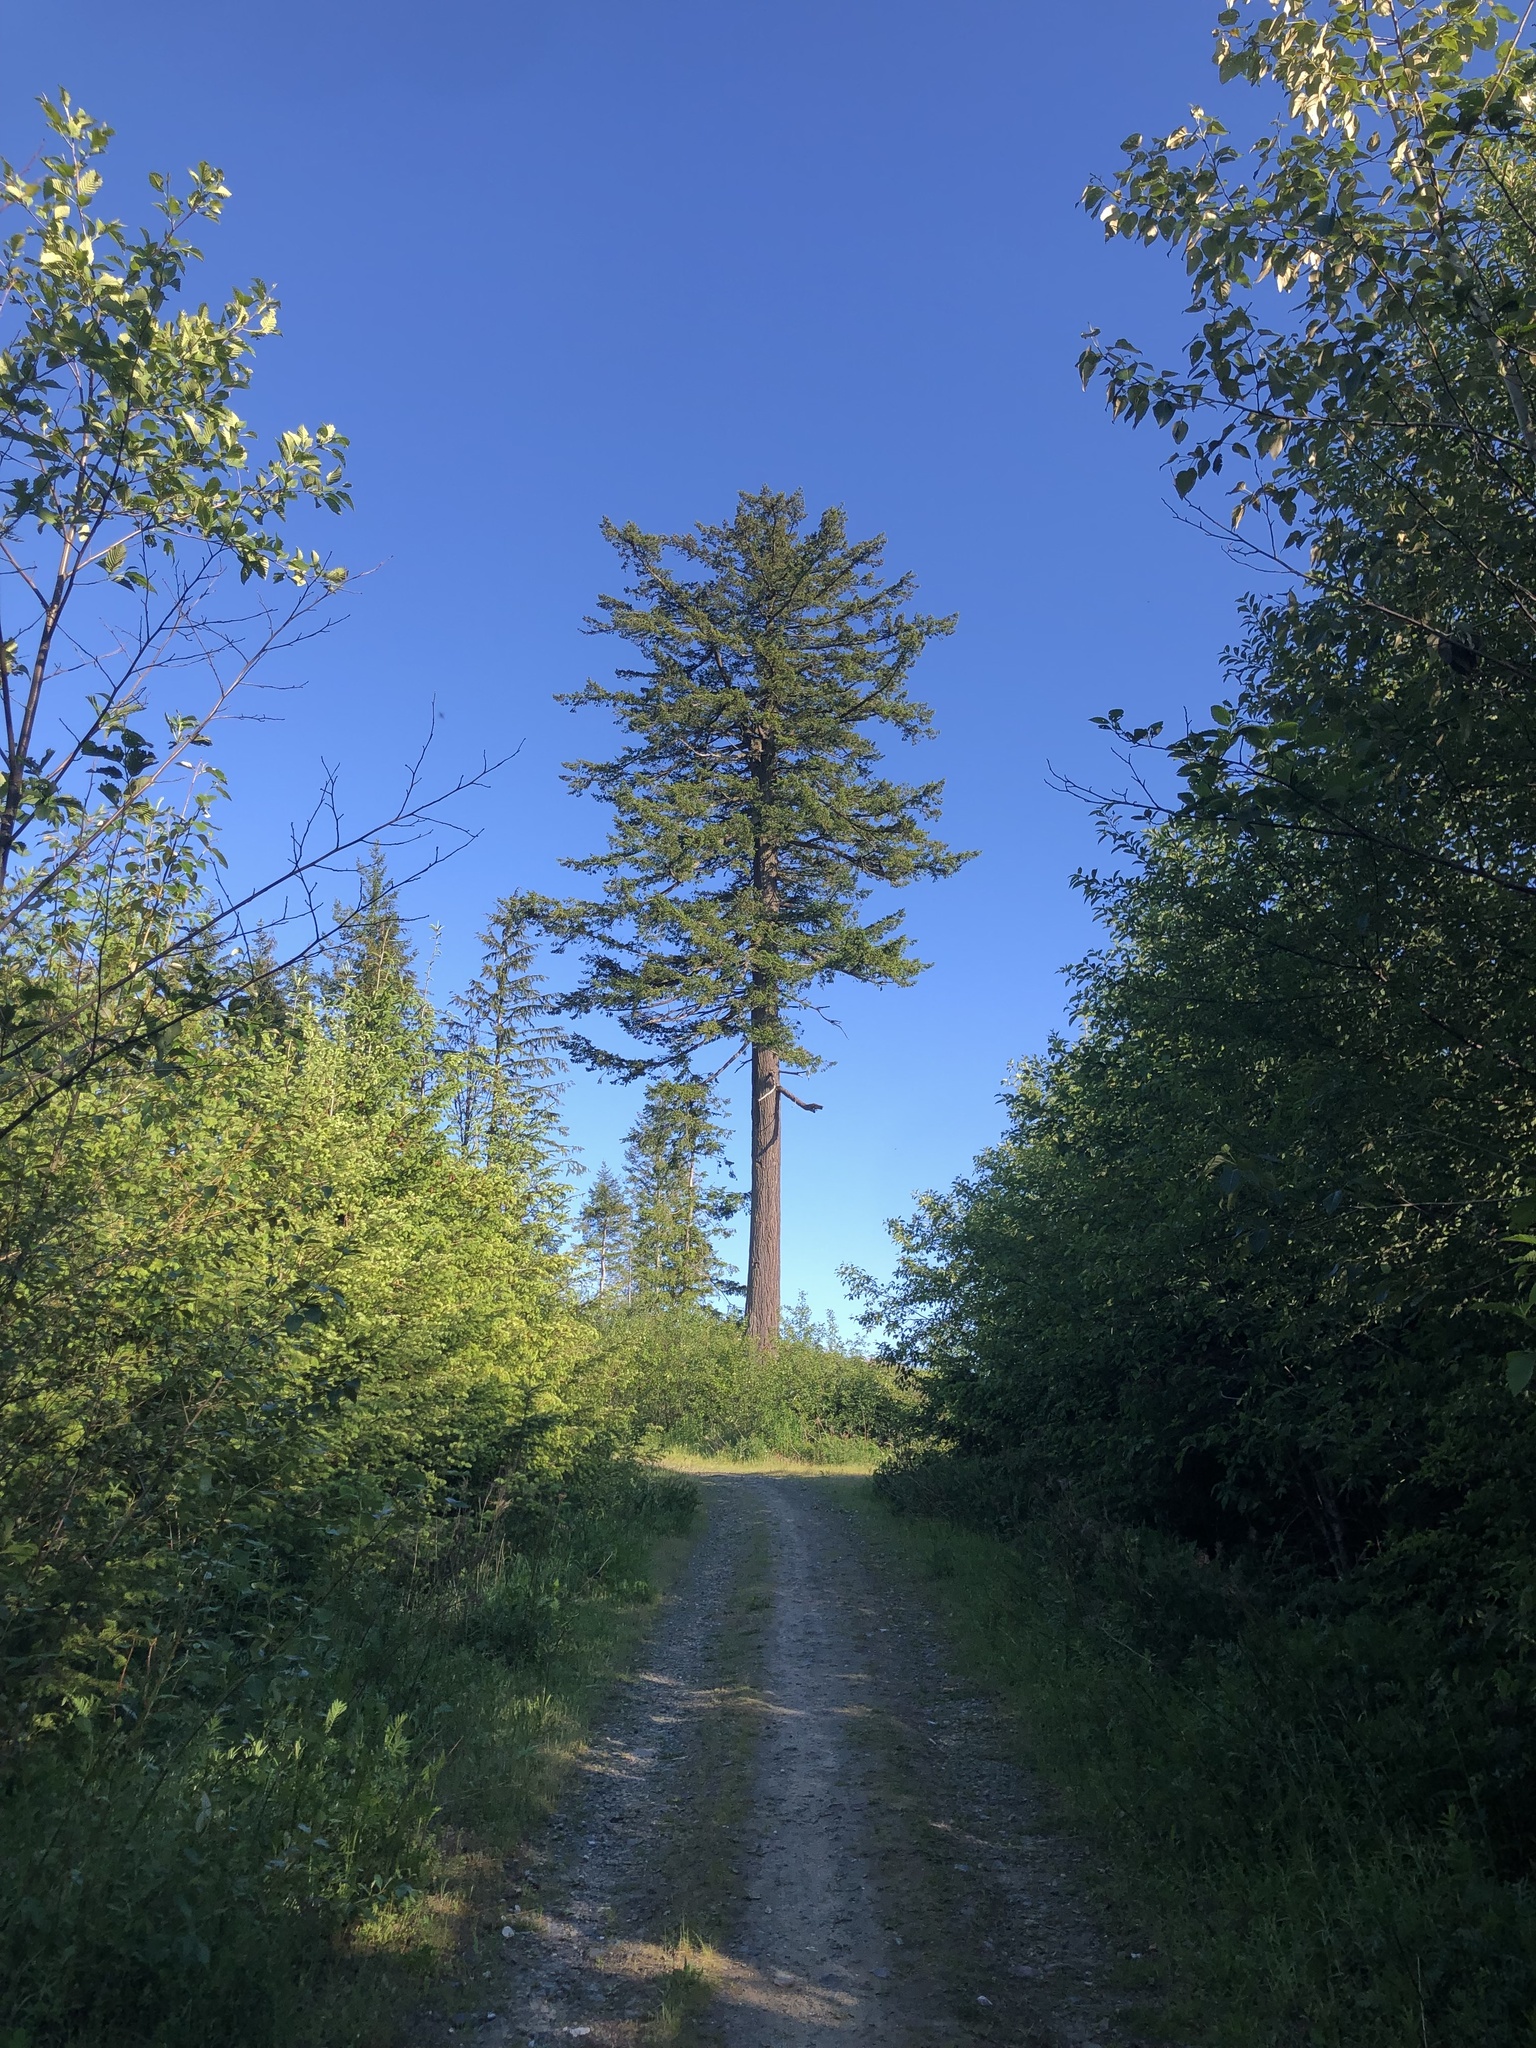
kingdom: Plantae
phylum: Tracheophyta
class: Pinopsida
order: Pinales
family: Pinaceae
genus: Pseudotsuga
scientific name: Pseudotsuga menziesii
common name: Douglas fir
